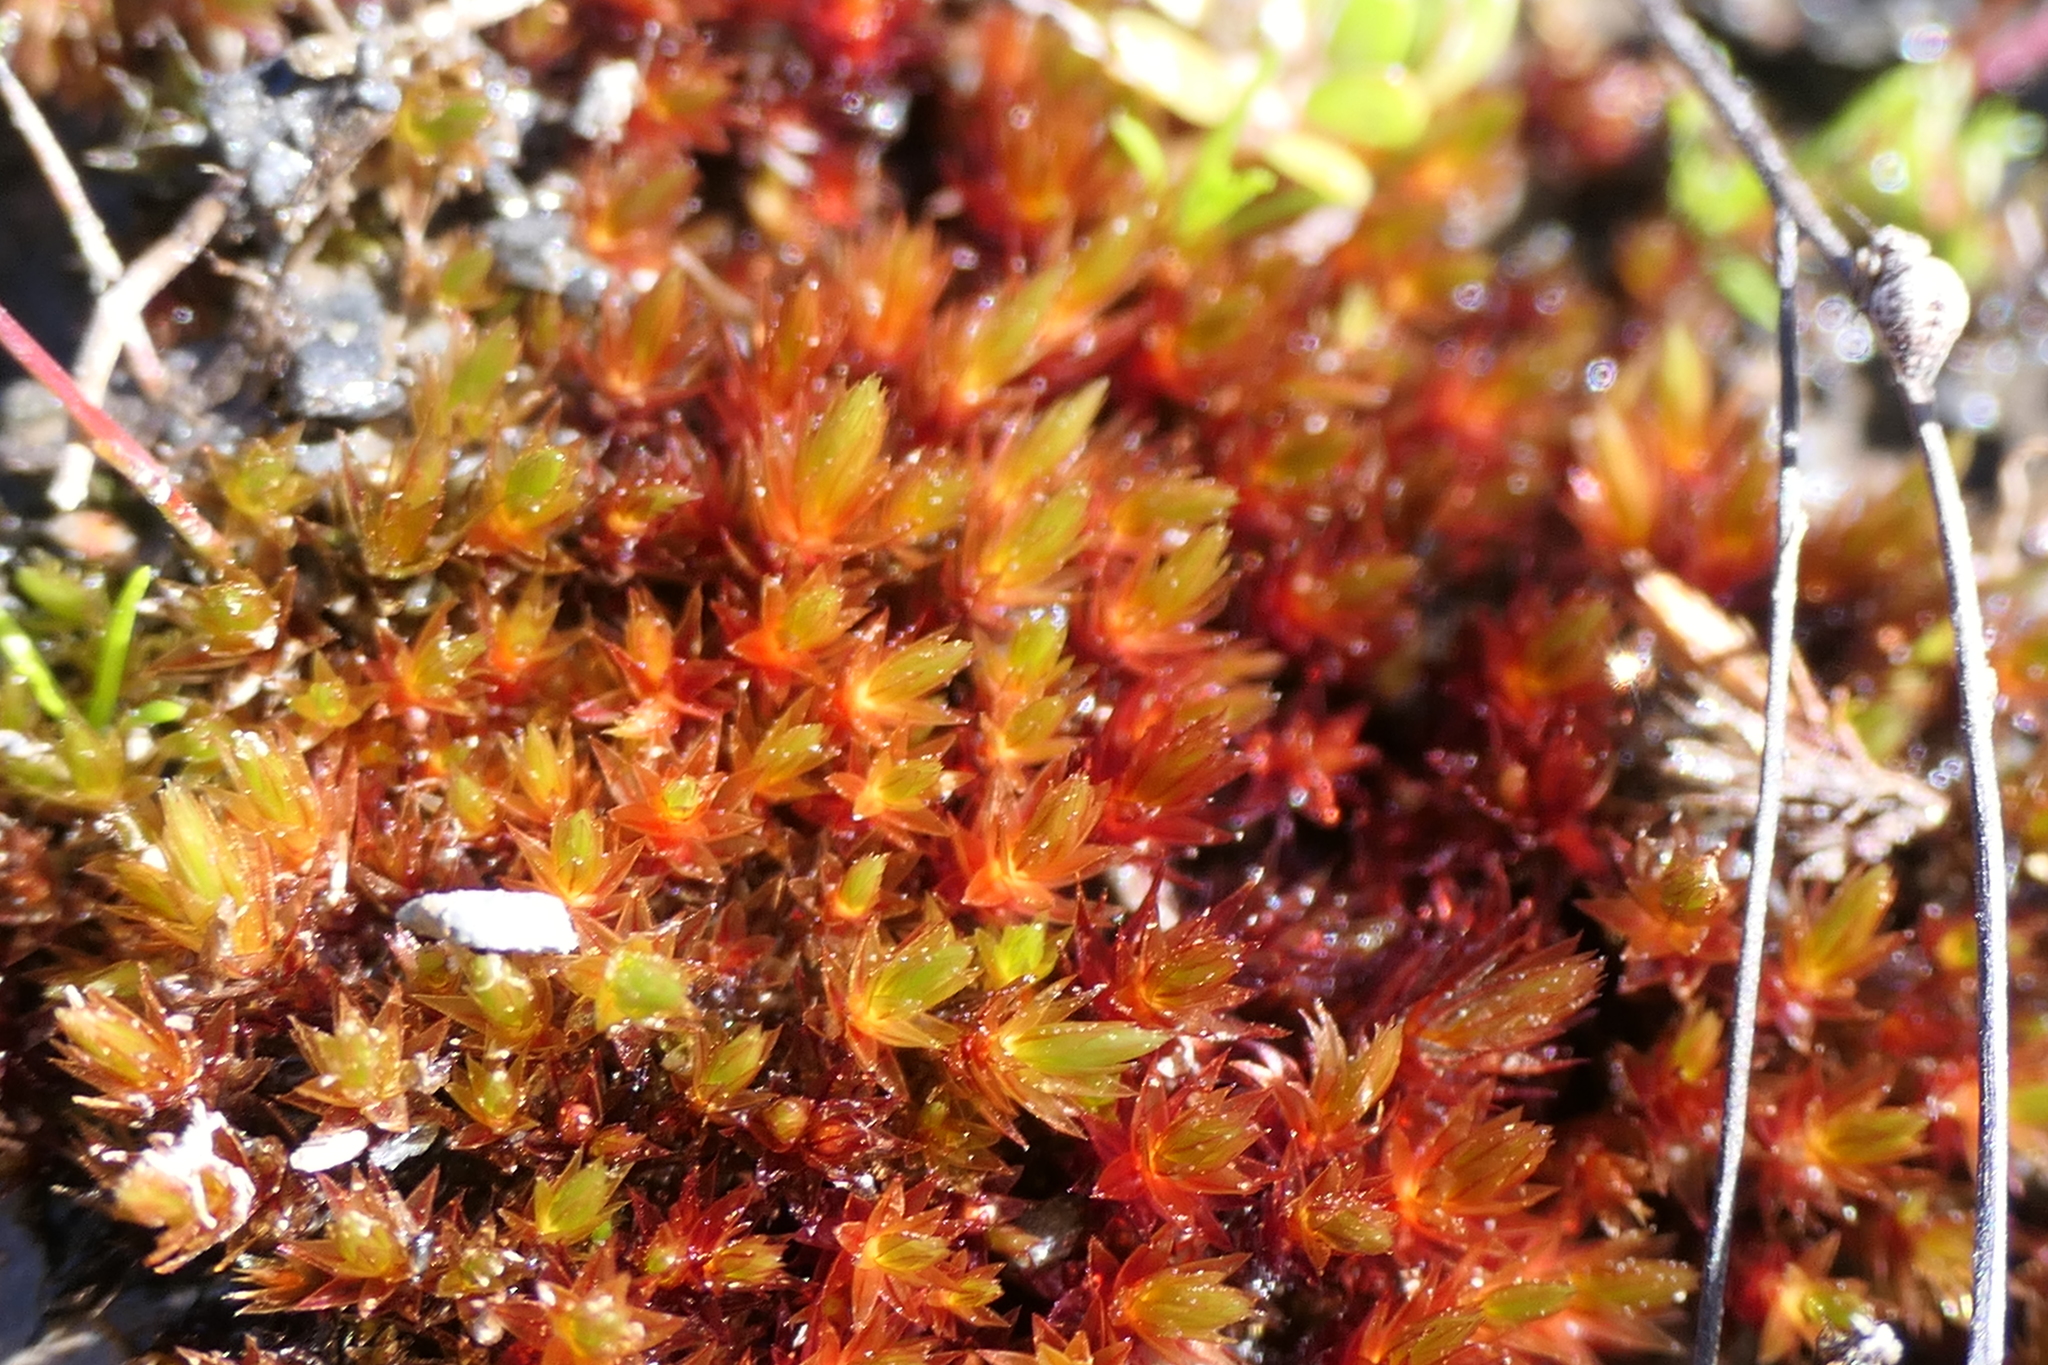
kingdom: Plantae
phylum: Bryophyta
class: Bryopsida
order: Bryales
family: Bryaceae
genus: Imbribryum
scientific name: Imbribryum alpinum
